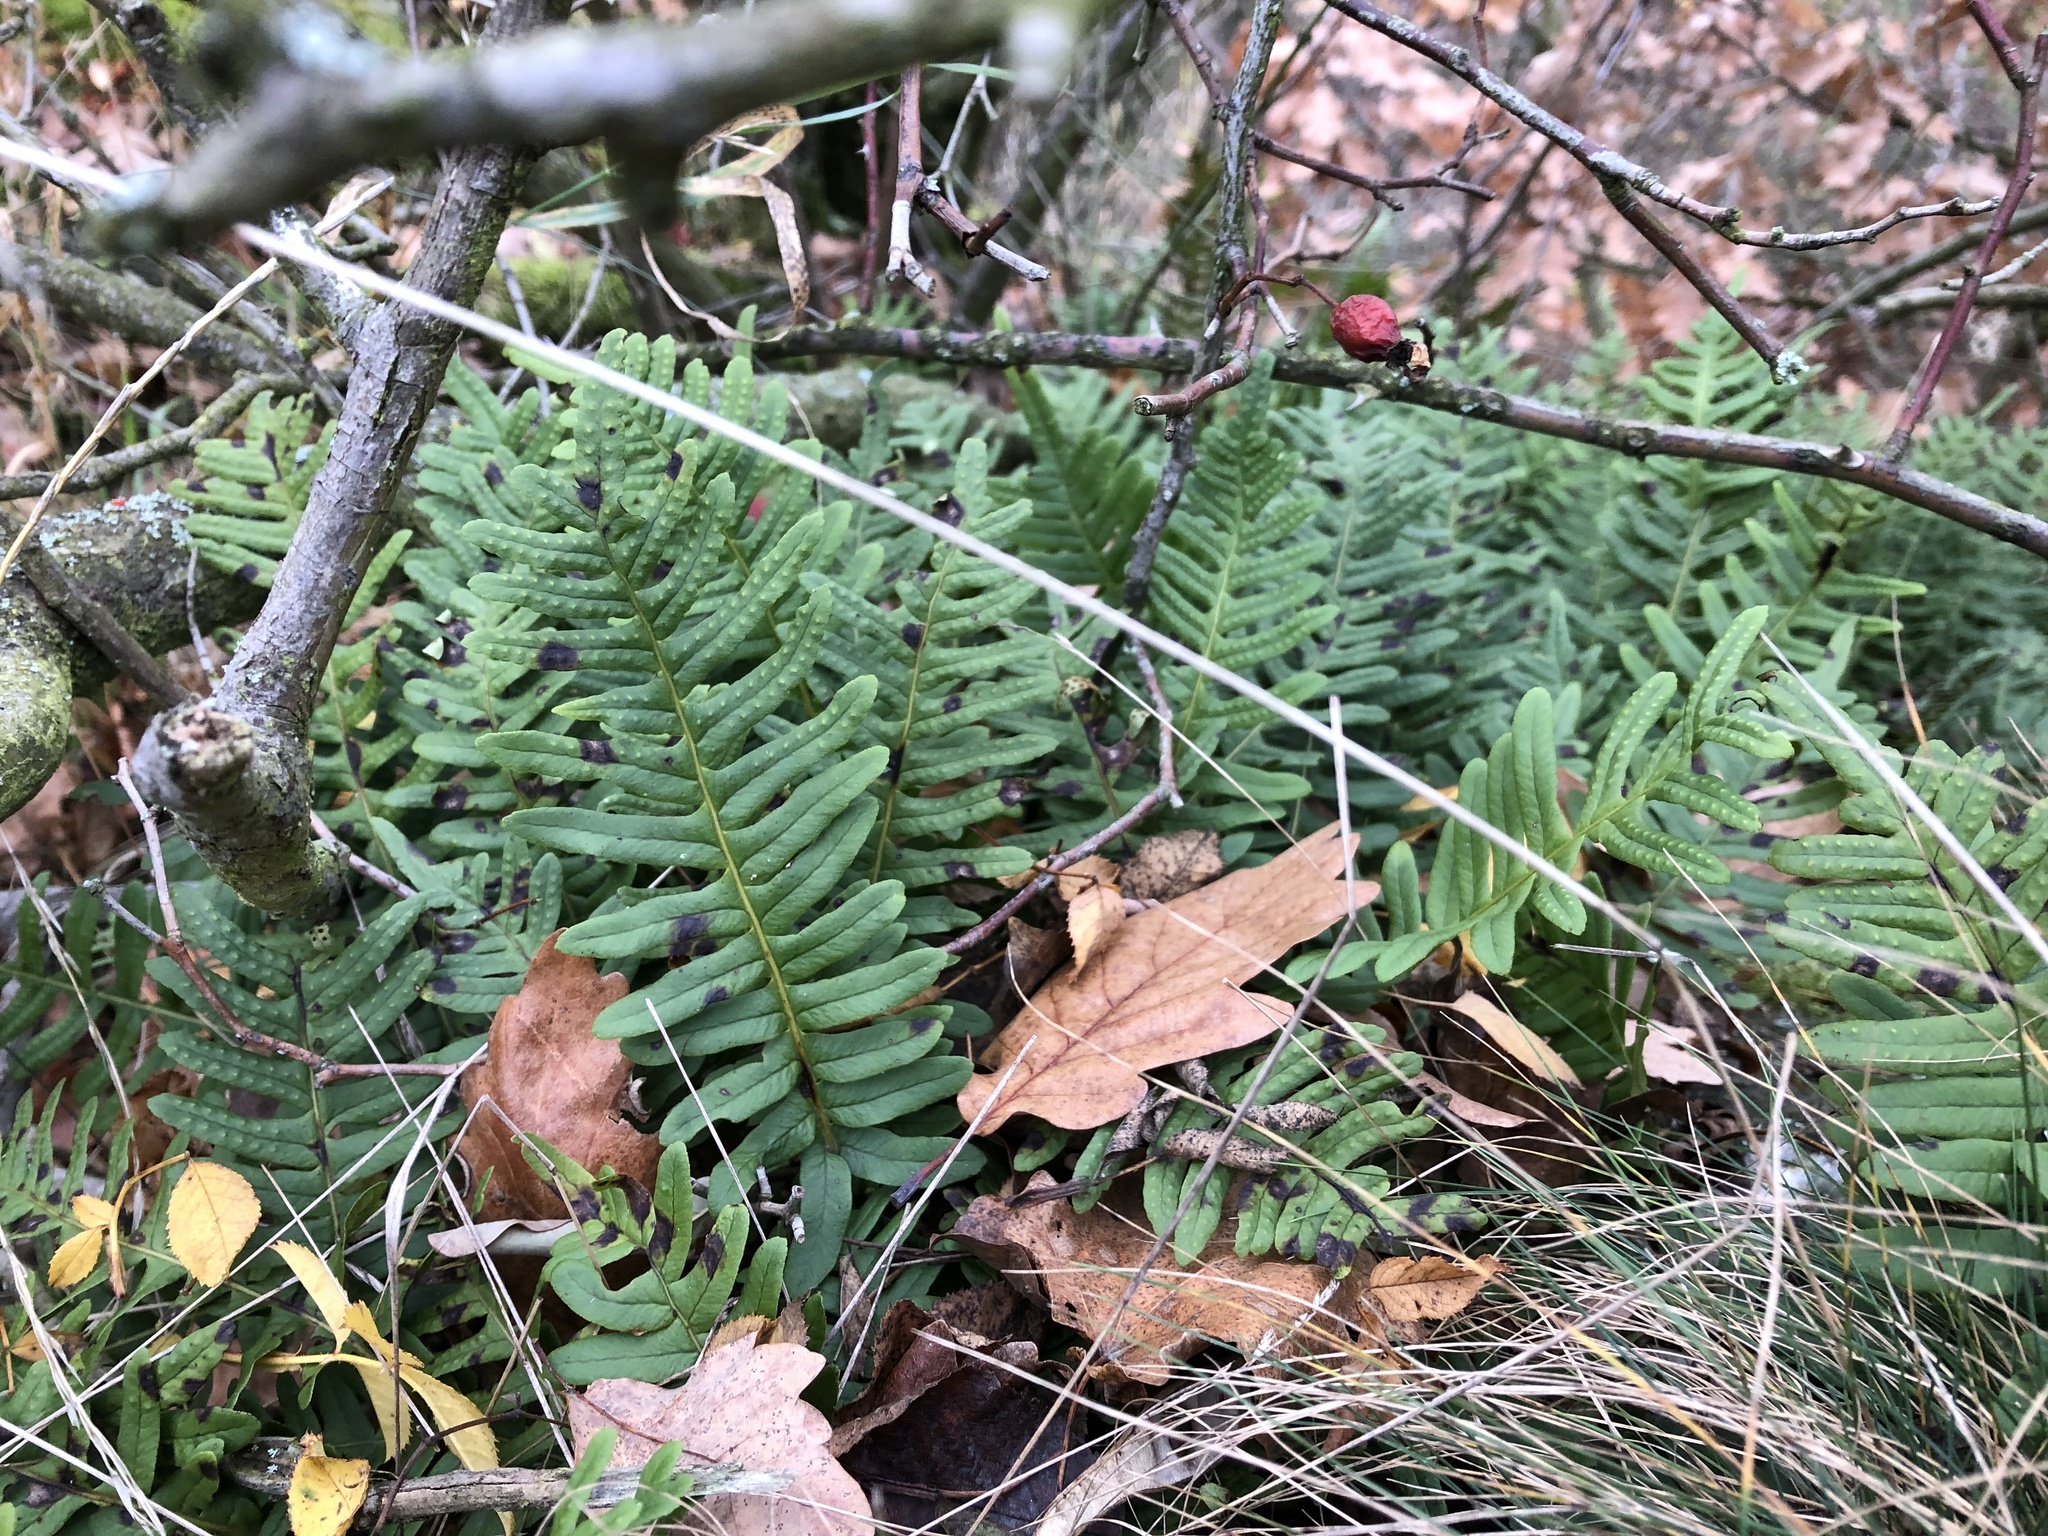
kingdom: Plantae
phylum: Tracheophyta
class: Polypodiopsida
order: Polypodiales
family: Polypodiaceae
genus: Polypodium
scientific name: Polypodium vulgare
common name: Common polypody
